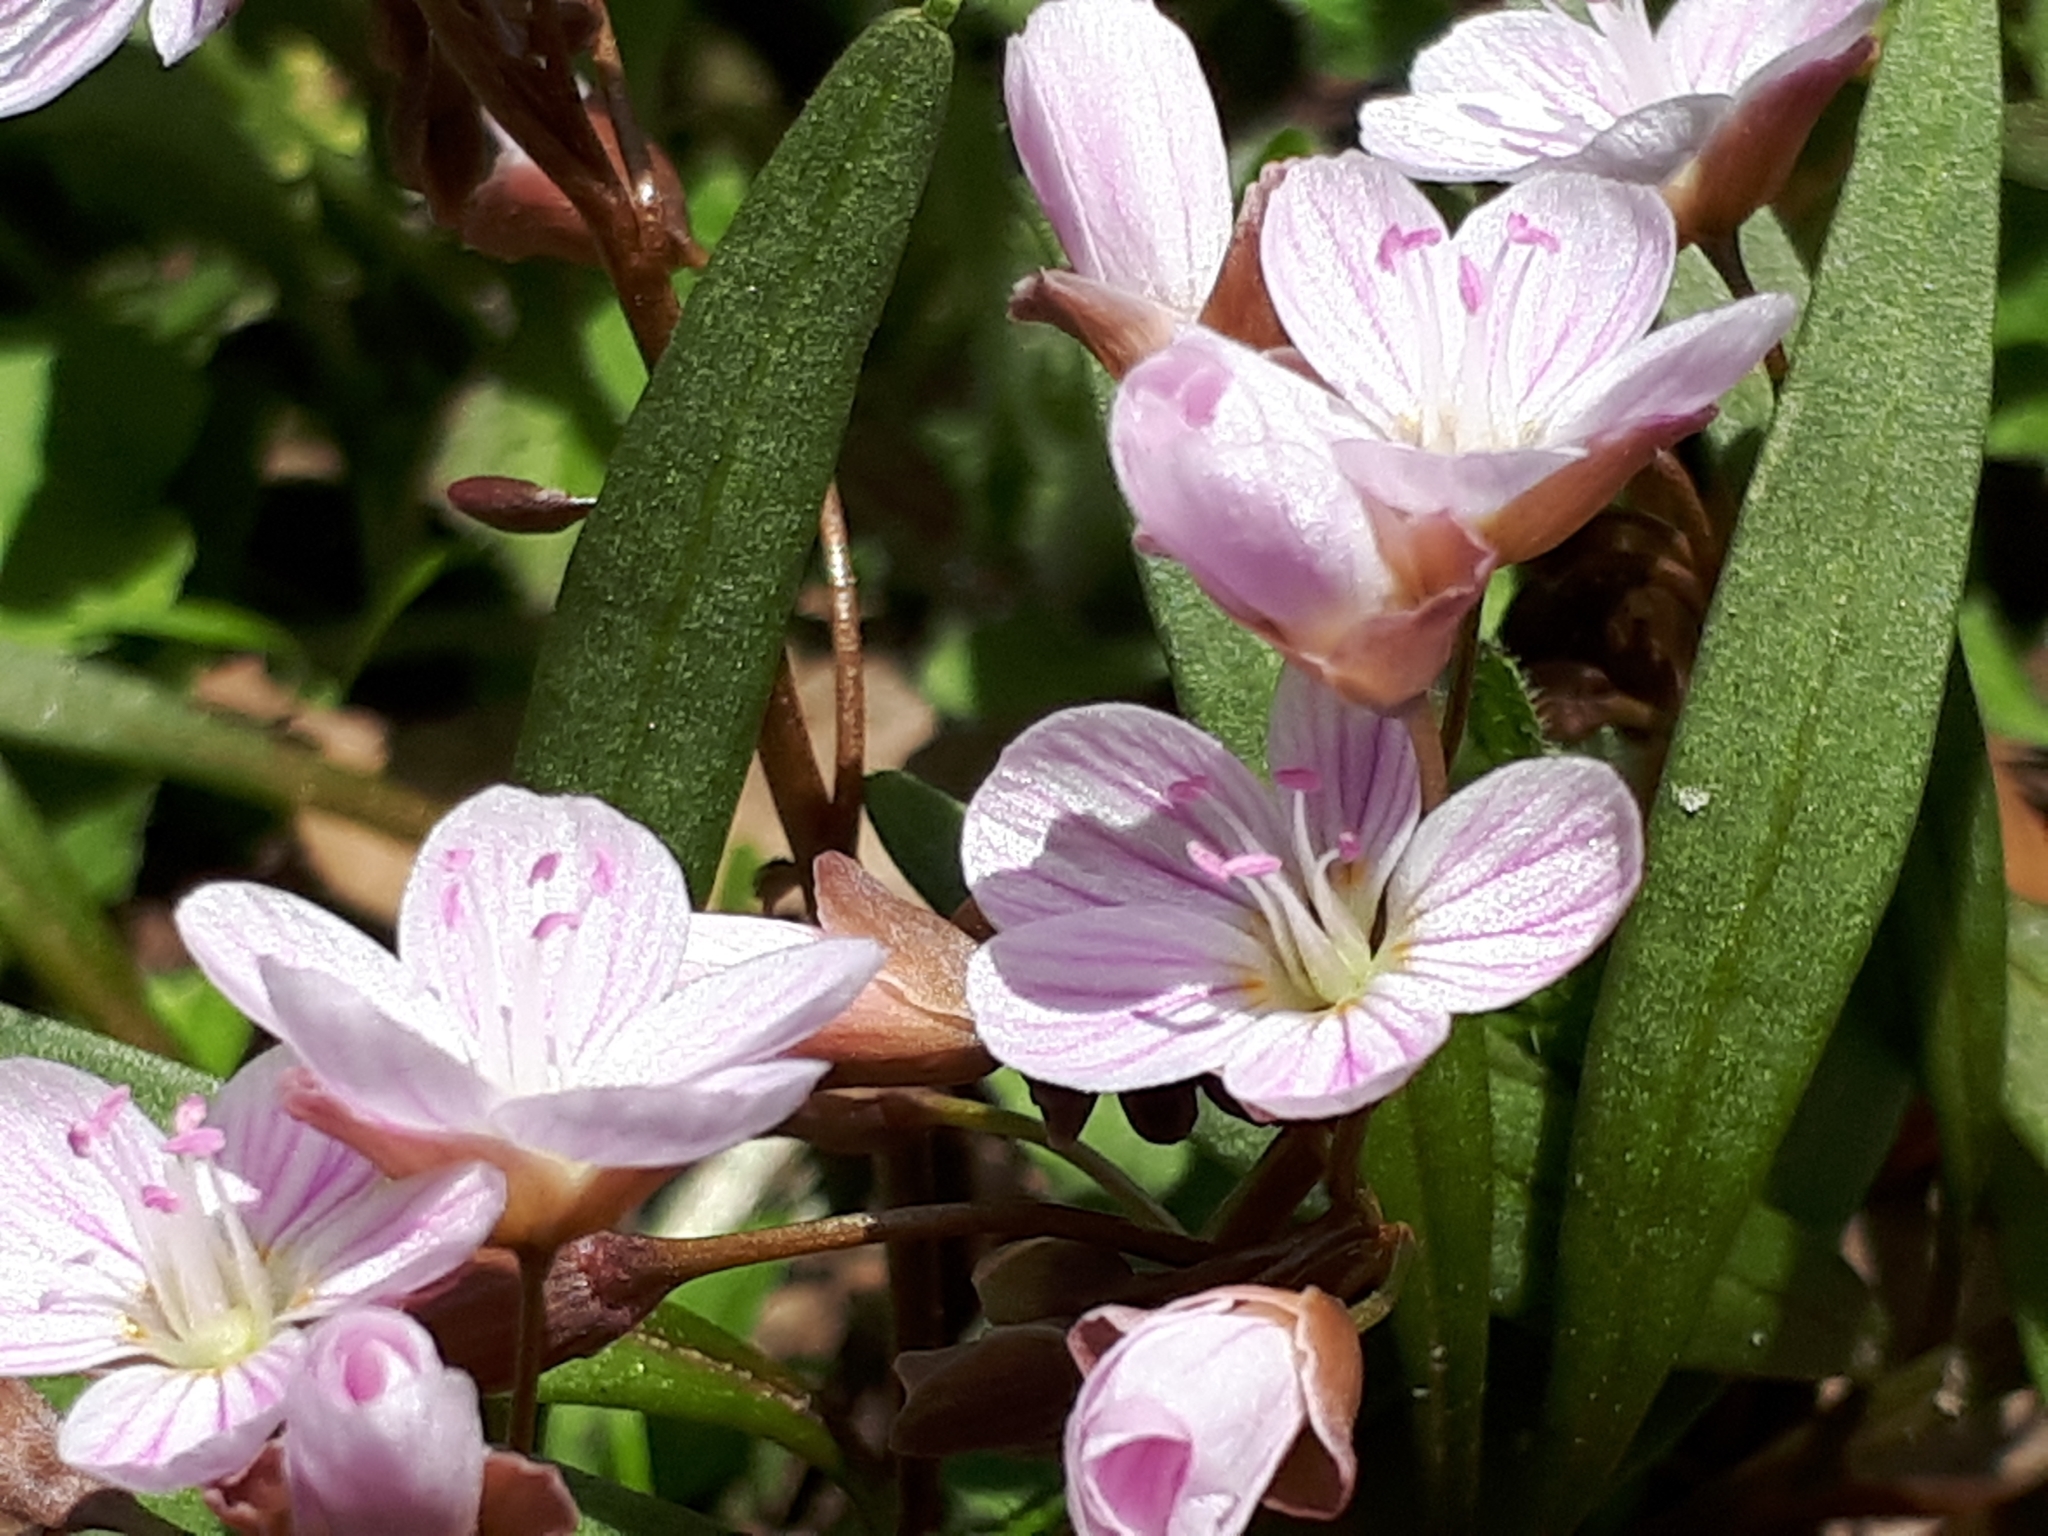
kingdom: Plantae
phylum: Tracheophyta
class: Magnoliopsida
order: Caryophyllales
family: Montiaceae
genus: Claytonia
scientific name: Claytonia virginica
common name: Virginia springbeauty
